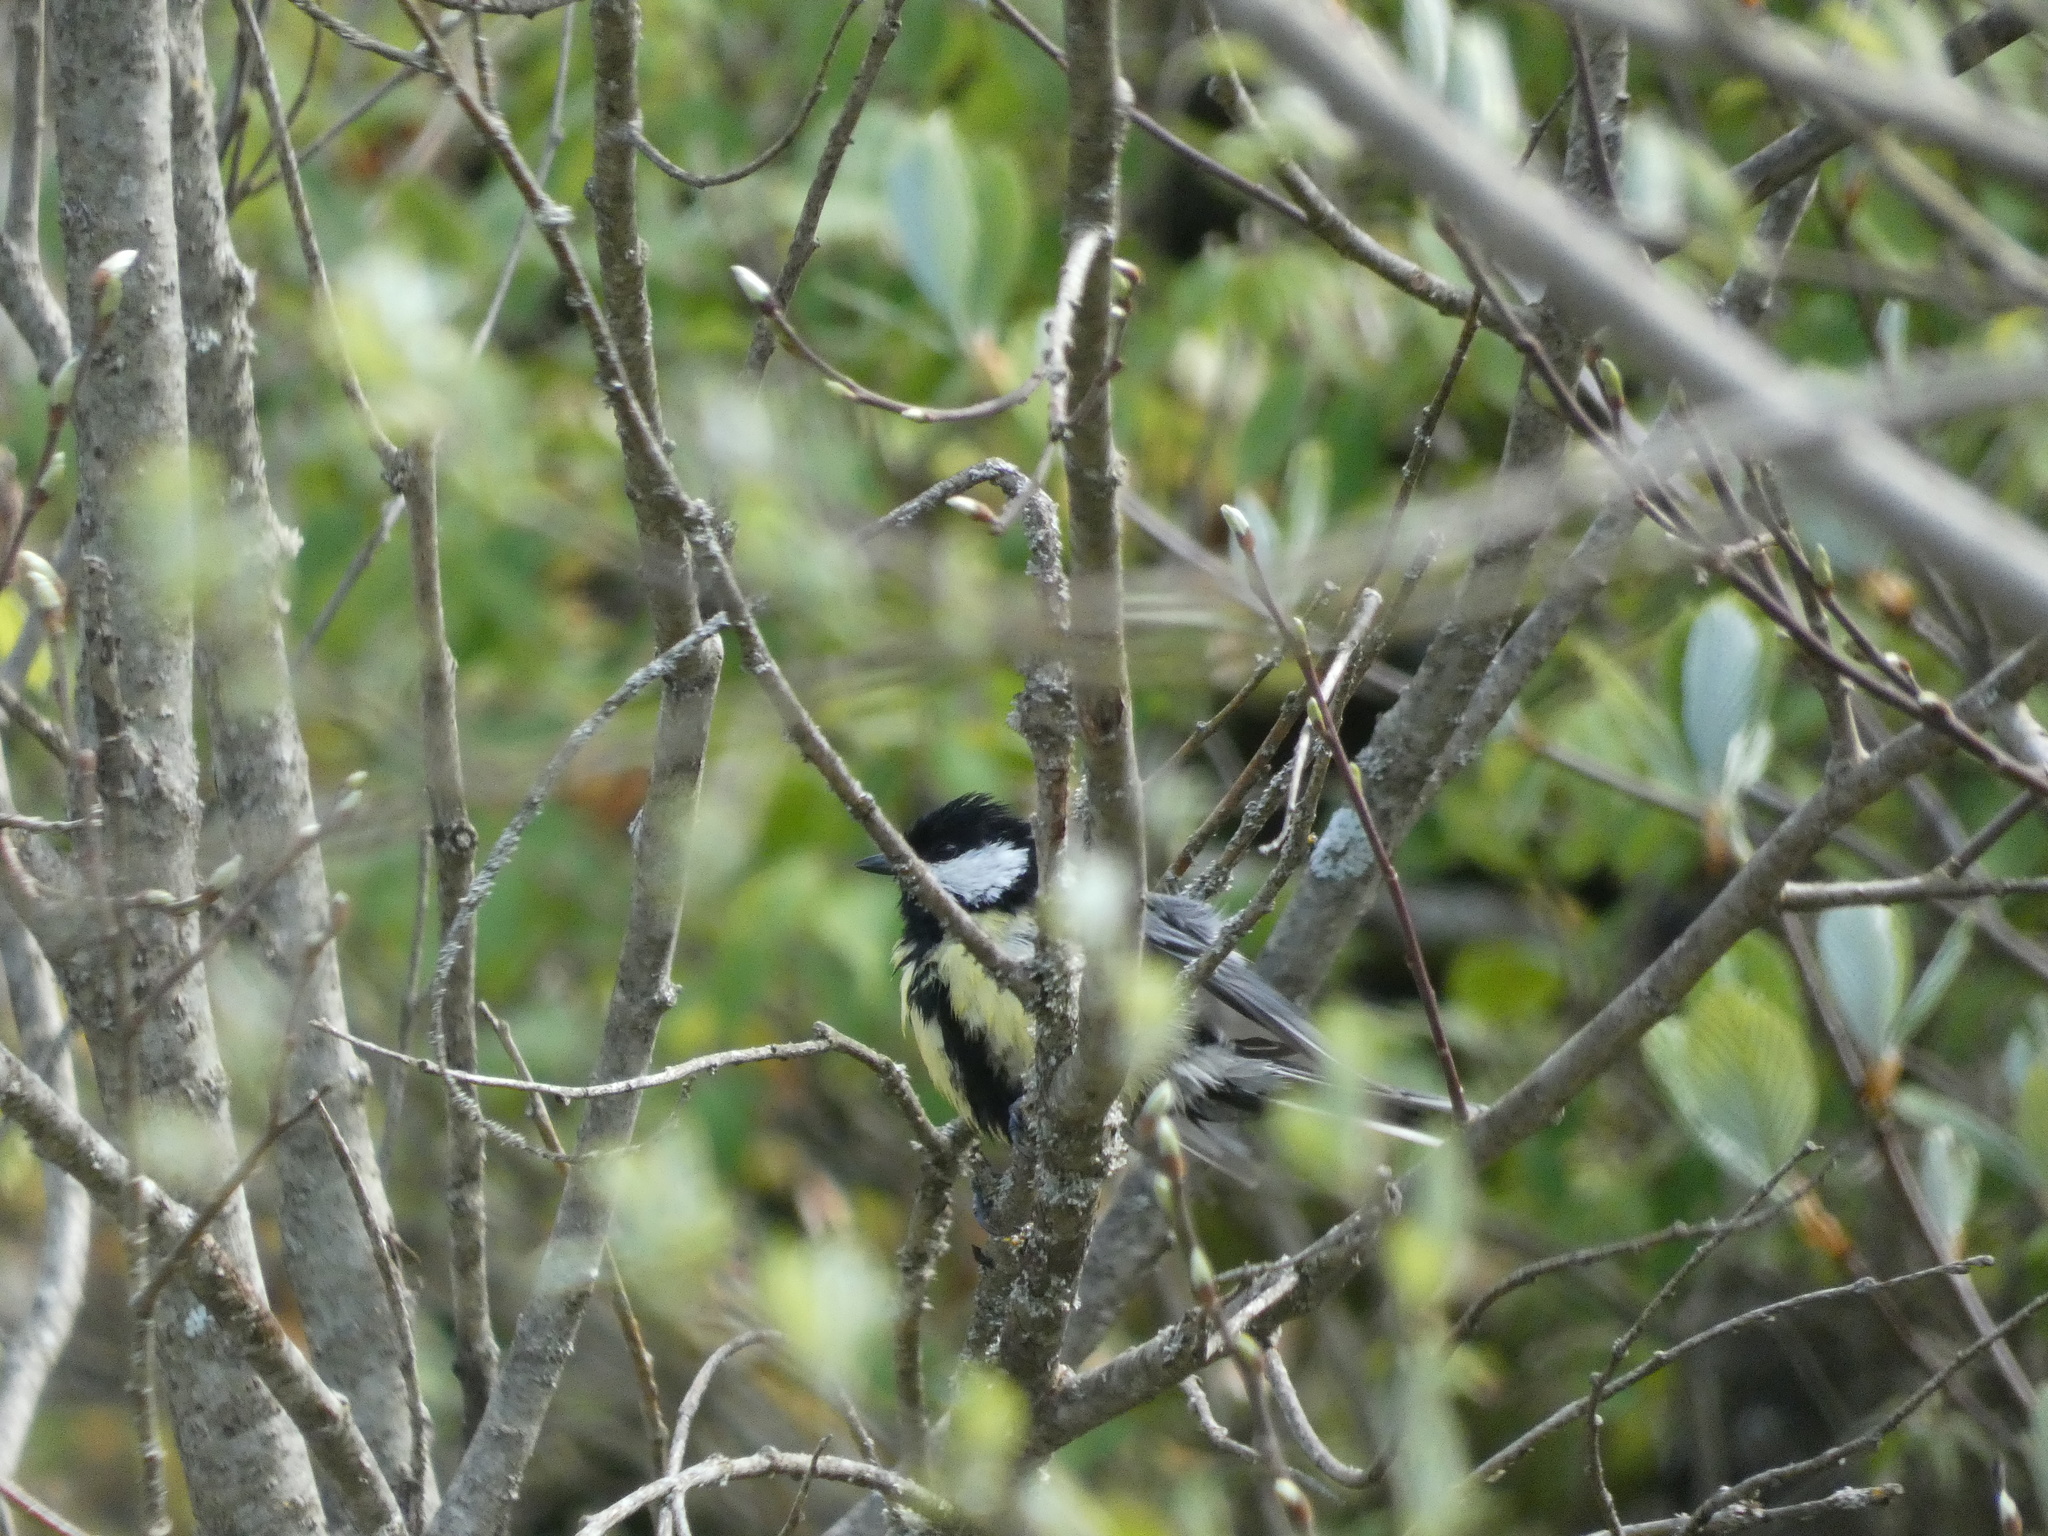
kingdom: Animalia
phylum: Chordata
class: Aves
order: Passeriformes
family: Paridae
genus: Parus
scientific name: Parus major
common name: Great tit
